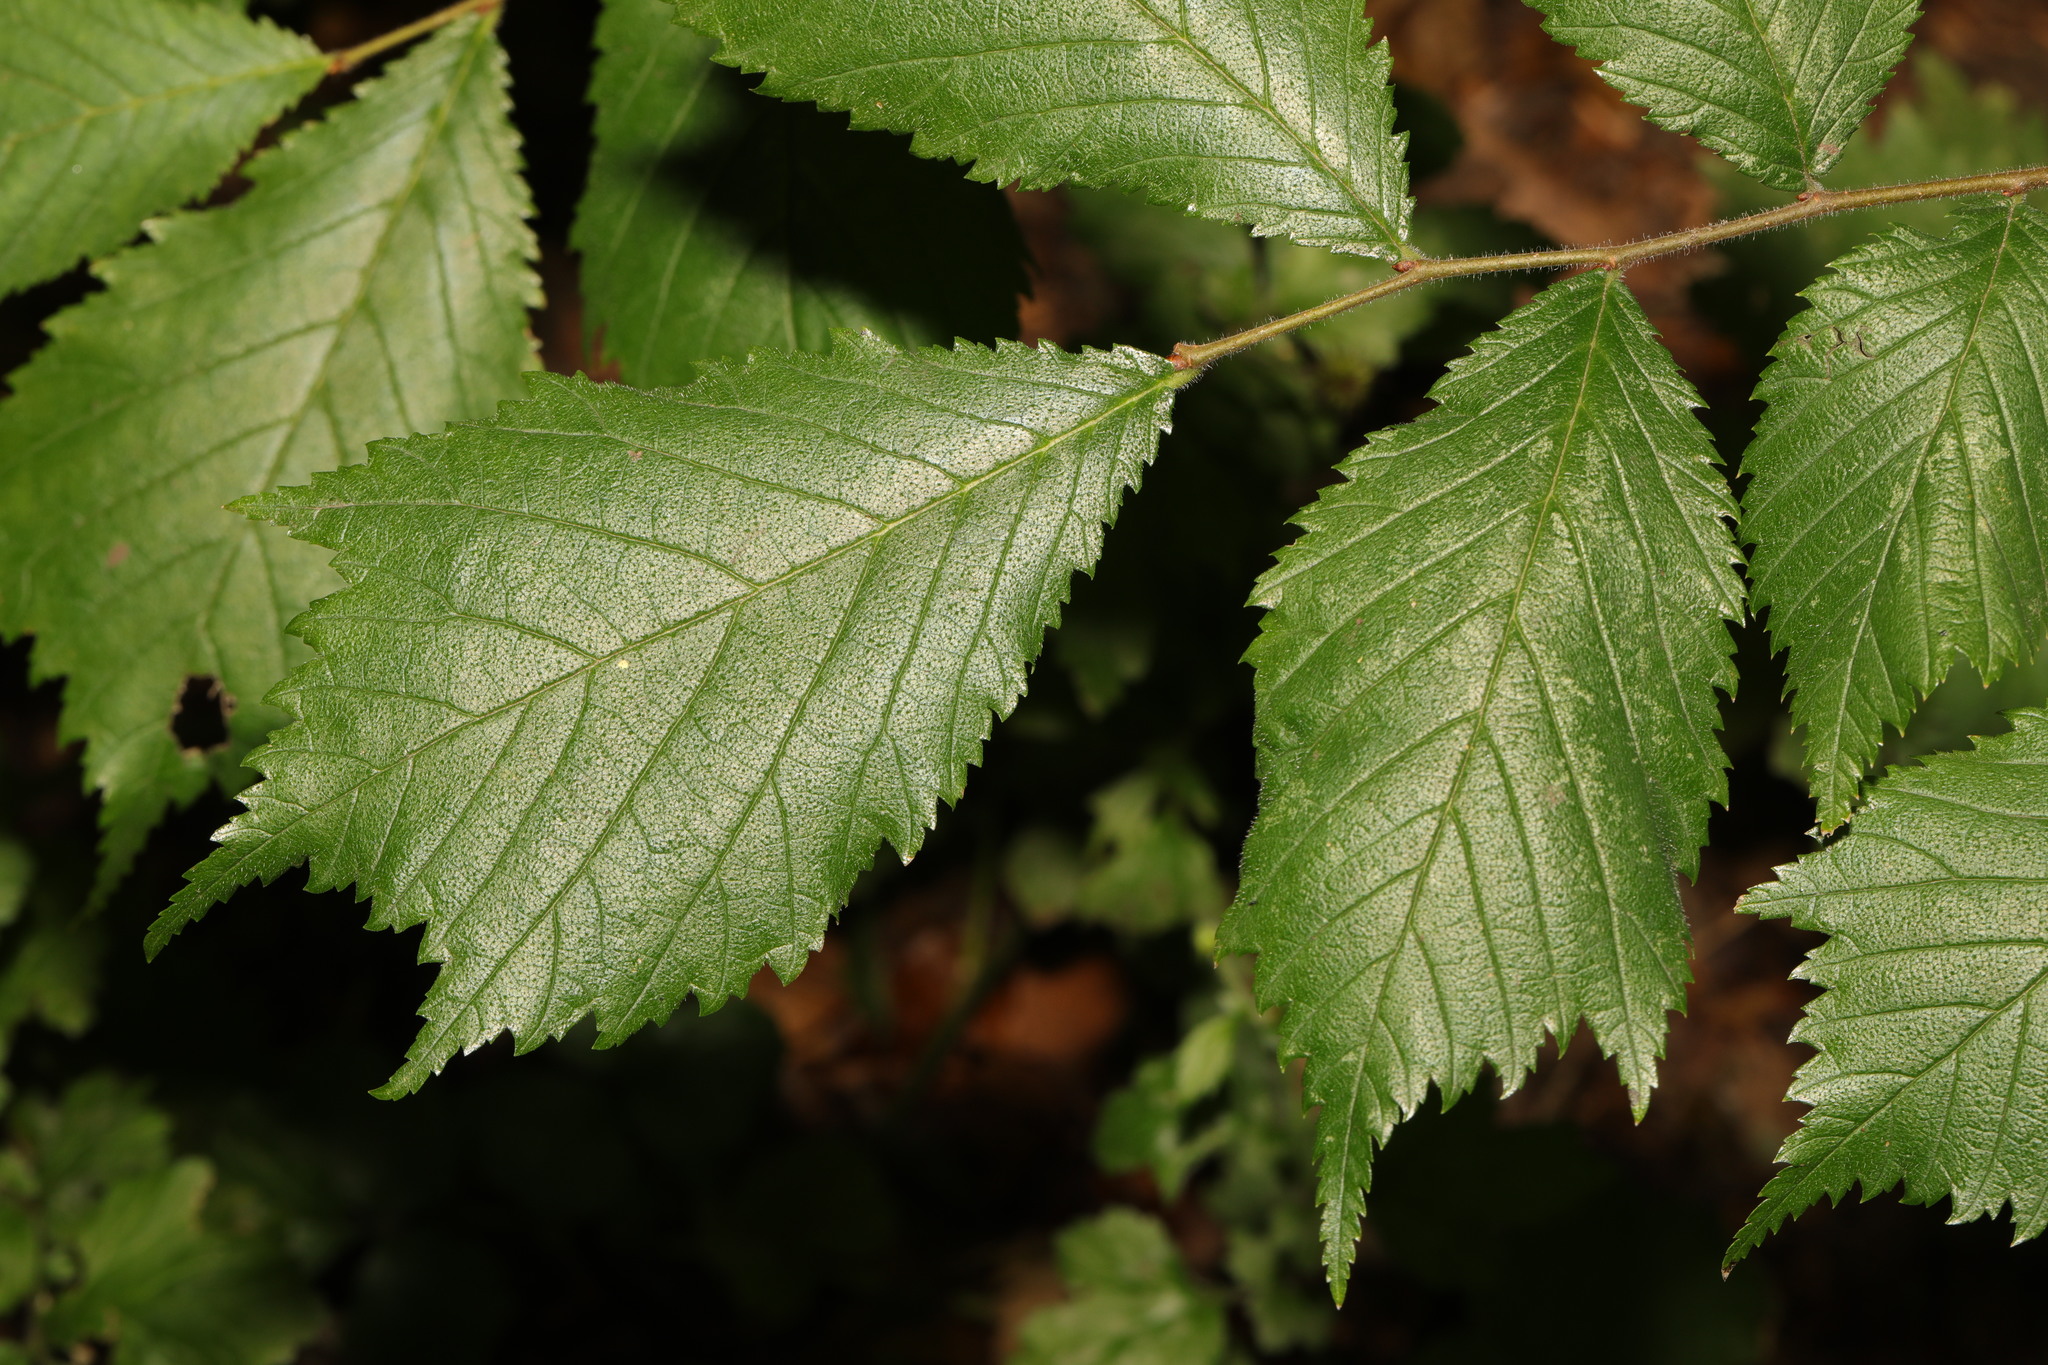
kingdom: Plantae
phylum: Tracheophyta
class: Magnoliopsida
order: Rosales
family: Ulmaceae
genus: Ulmus
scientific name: Ulmus glabra
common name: Wych elm
